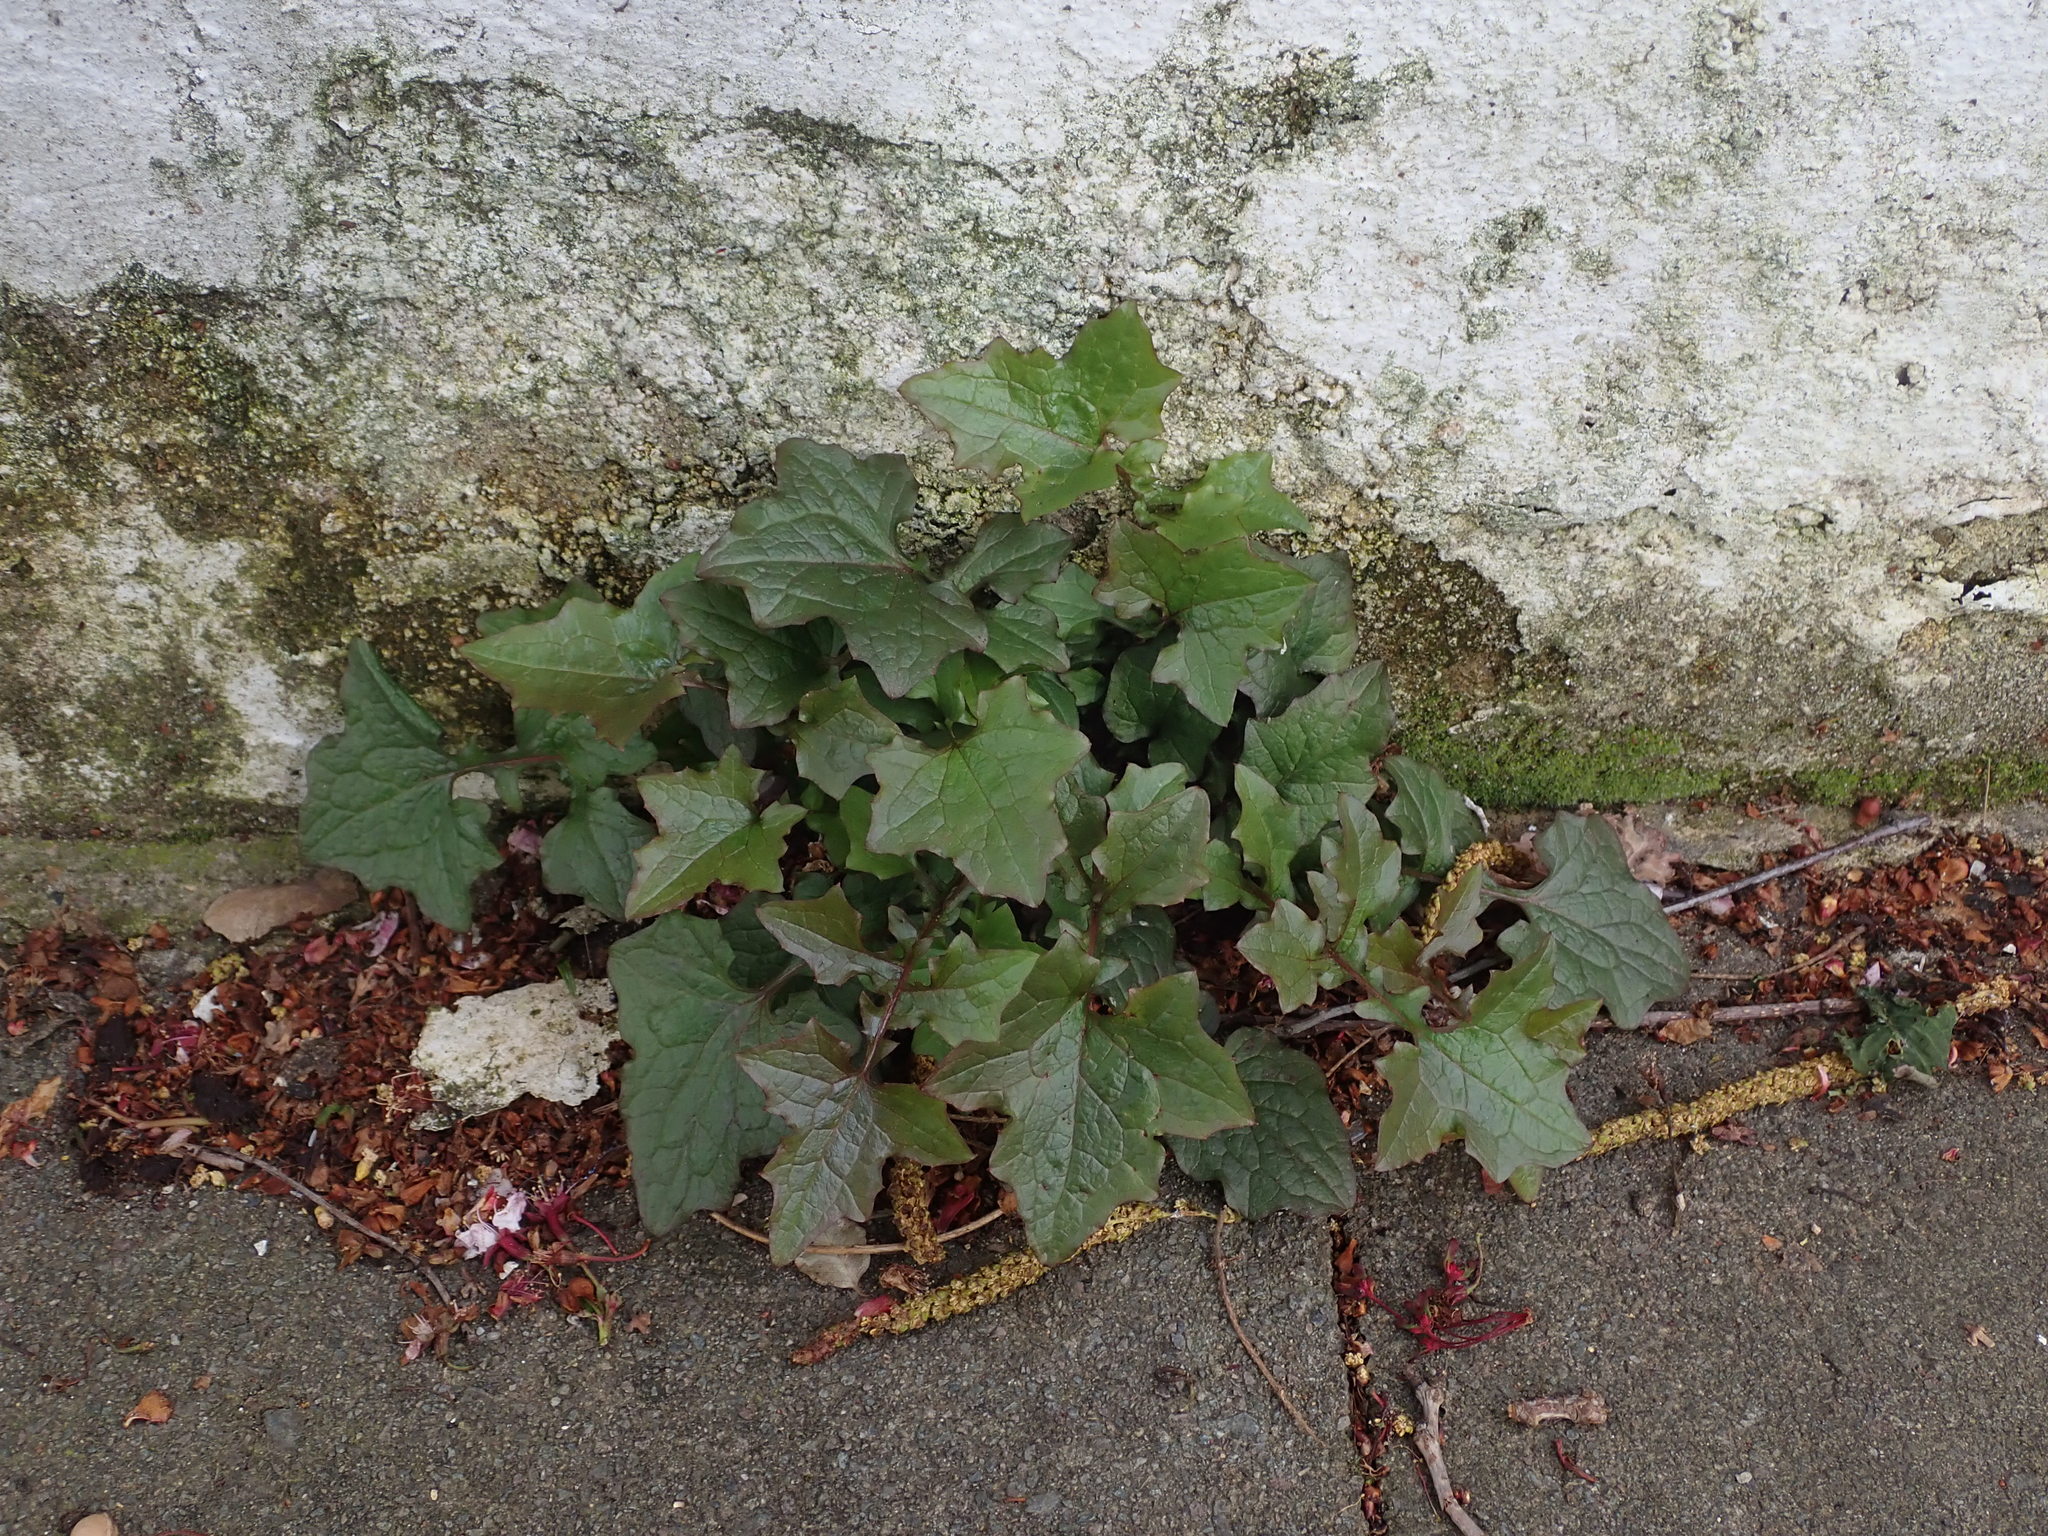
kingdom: Plantae
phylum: Tracheophyta
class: Magnoliopsida
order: Asterales
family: Asteraceae
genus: Mycelis
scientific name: Mycelis muralis
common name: Wall lettuce
